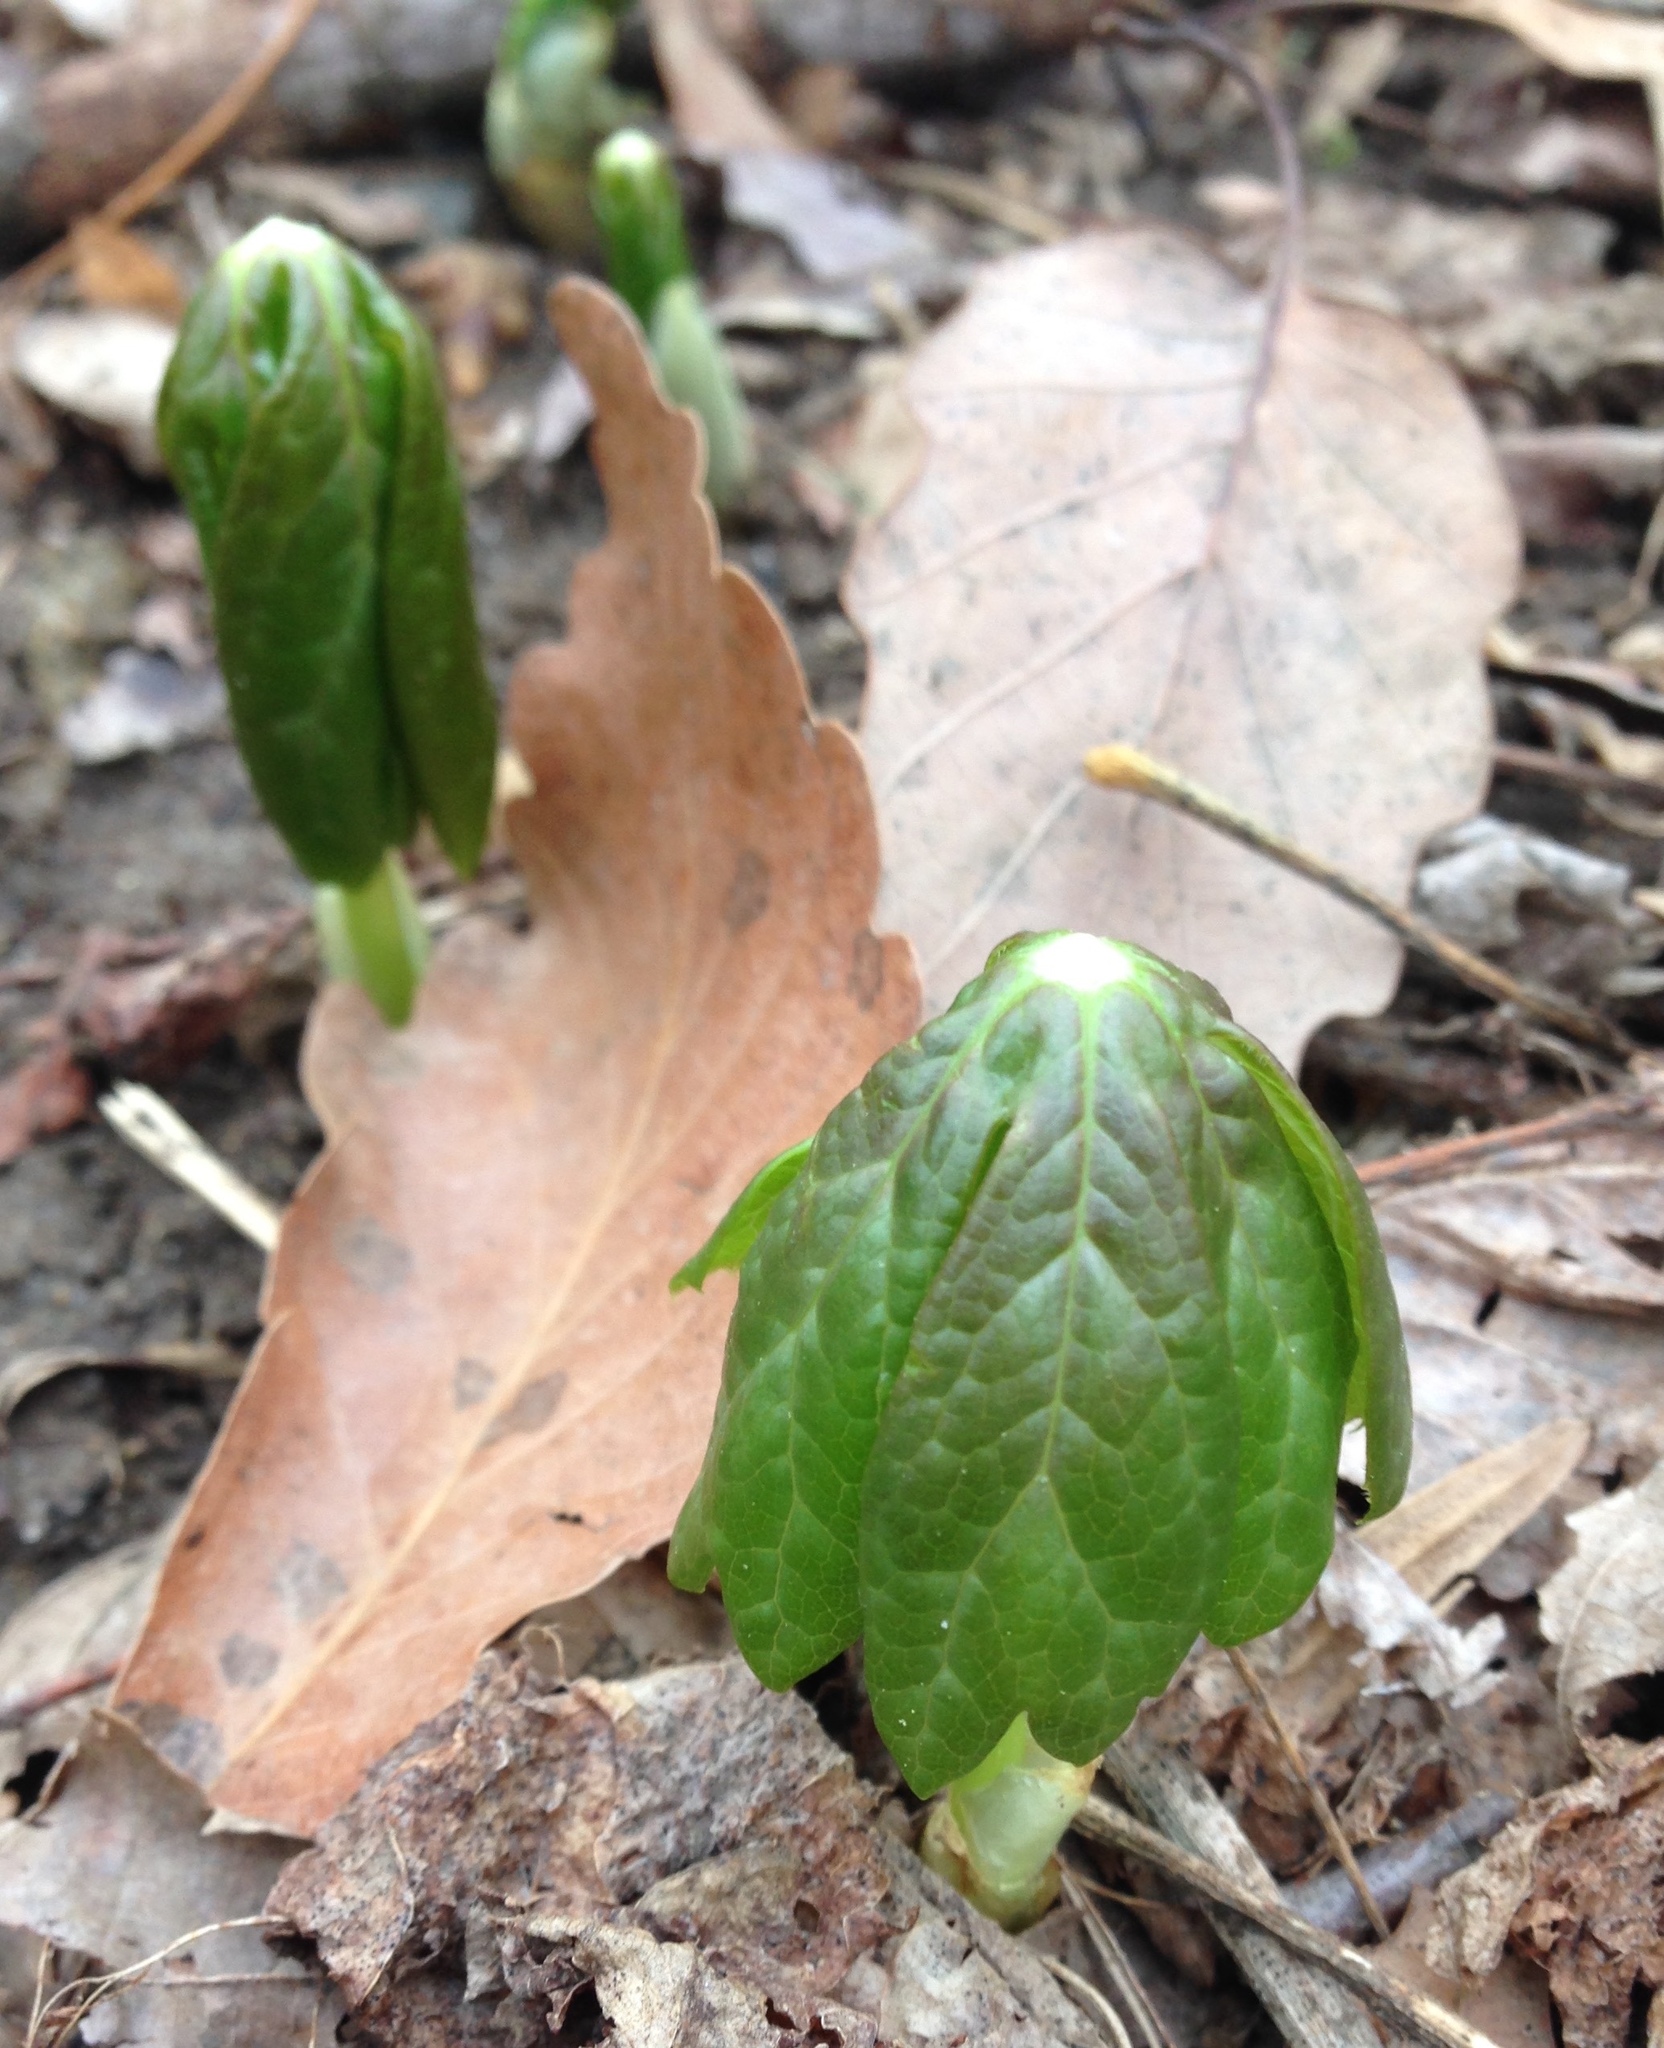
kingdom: Plantae
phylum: Tracheophyta
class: Magnoliopsida
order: Ranunculales
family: Berberidaceae
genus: Podophyllum
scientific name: Podophyllum peltatum
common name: Wild mandrake
